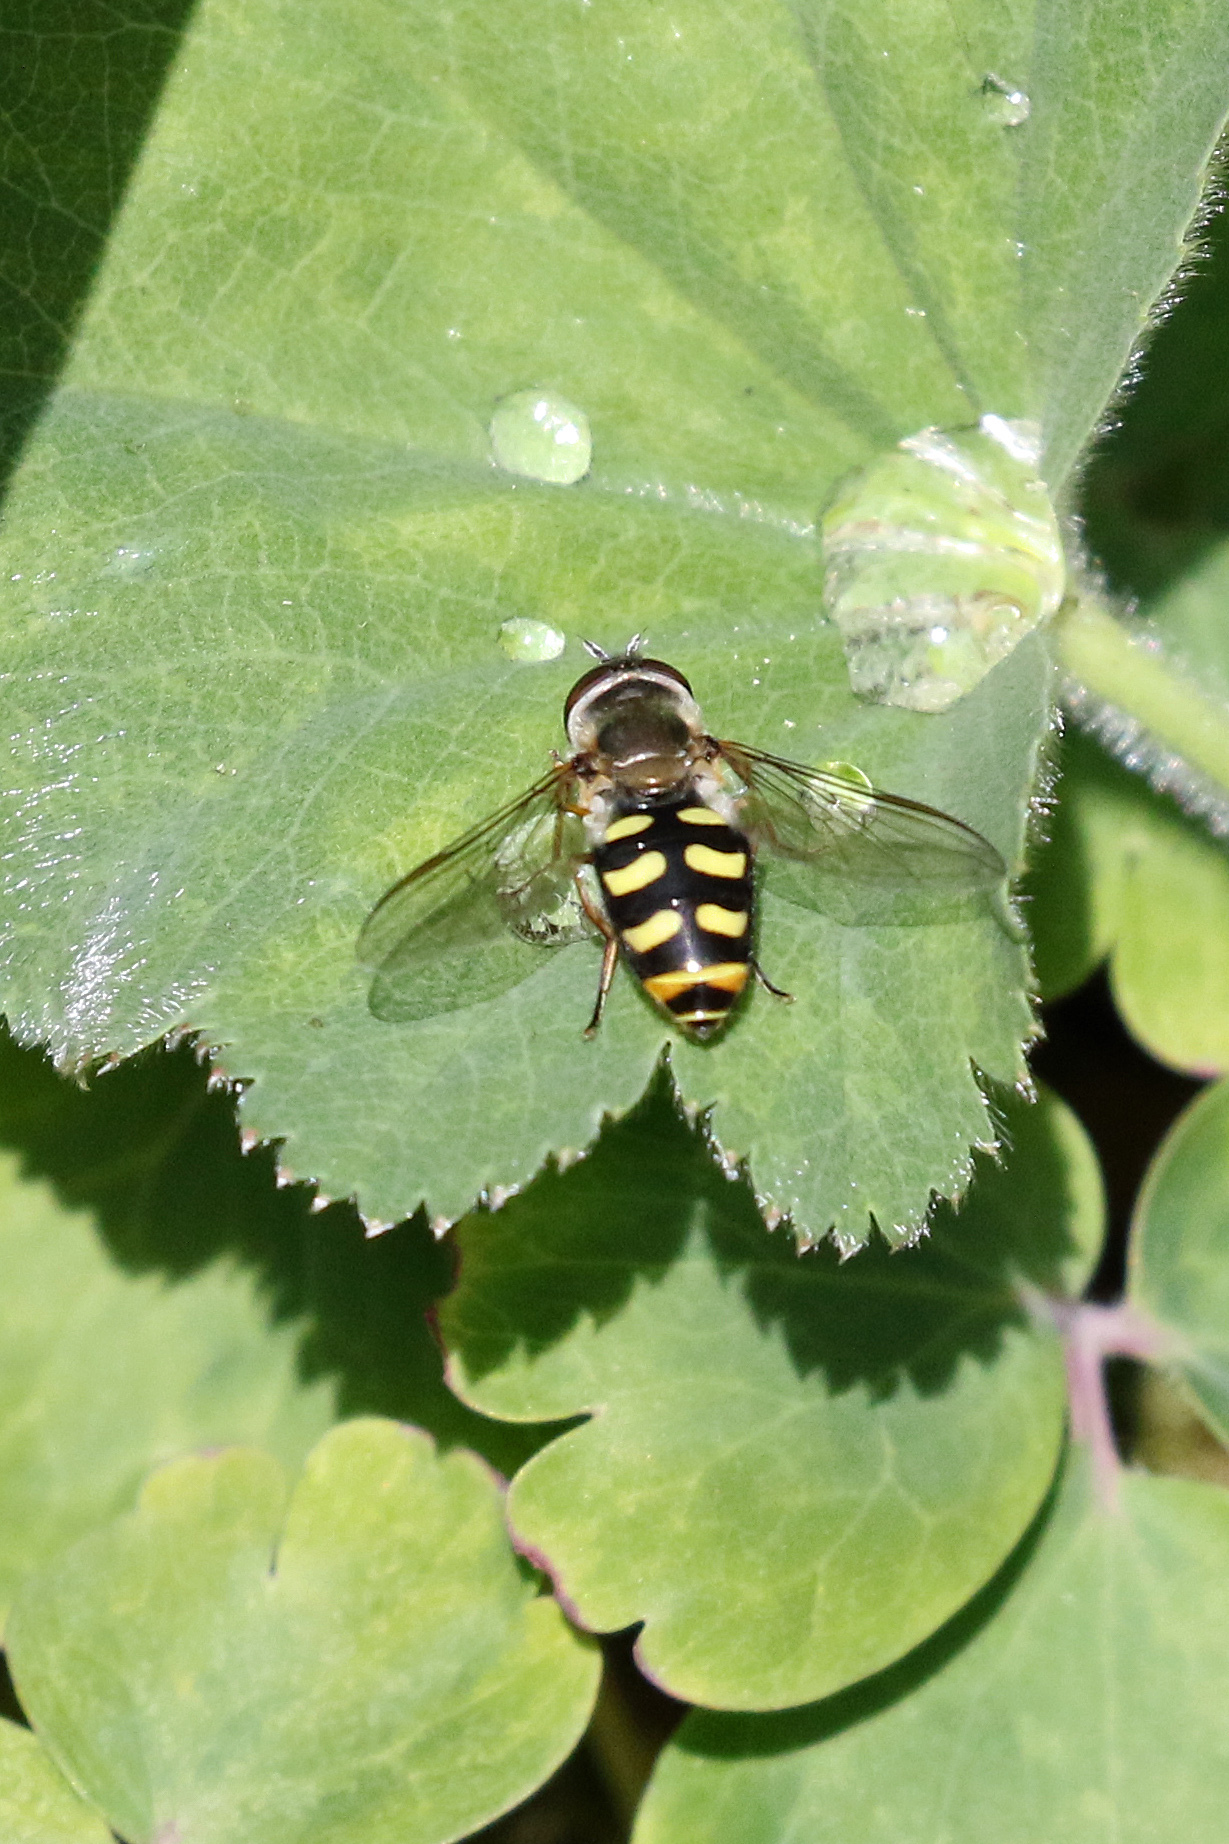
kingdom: Animalia
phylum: Arthropoda
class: Insecta
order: Diptera
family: Syrphidae
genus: Eupeodes
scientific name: Eupeodes luniger
